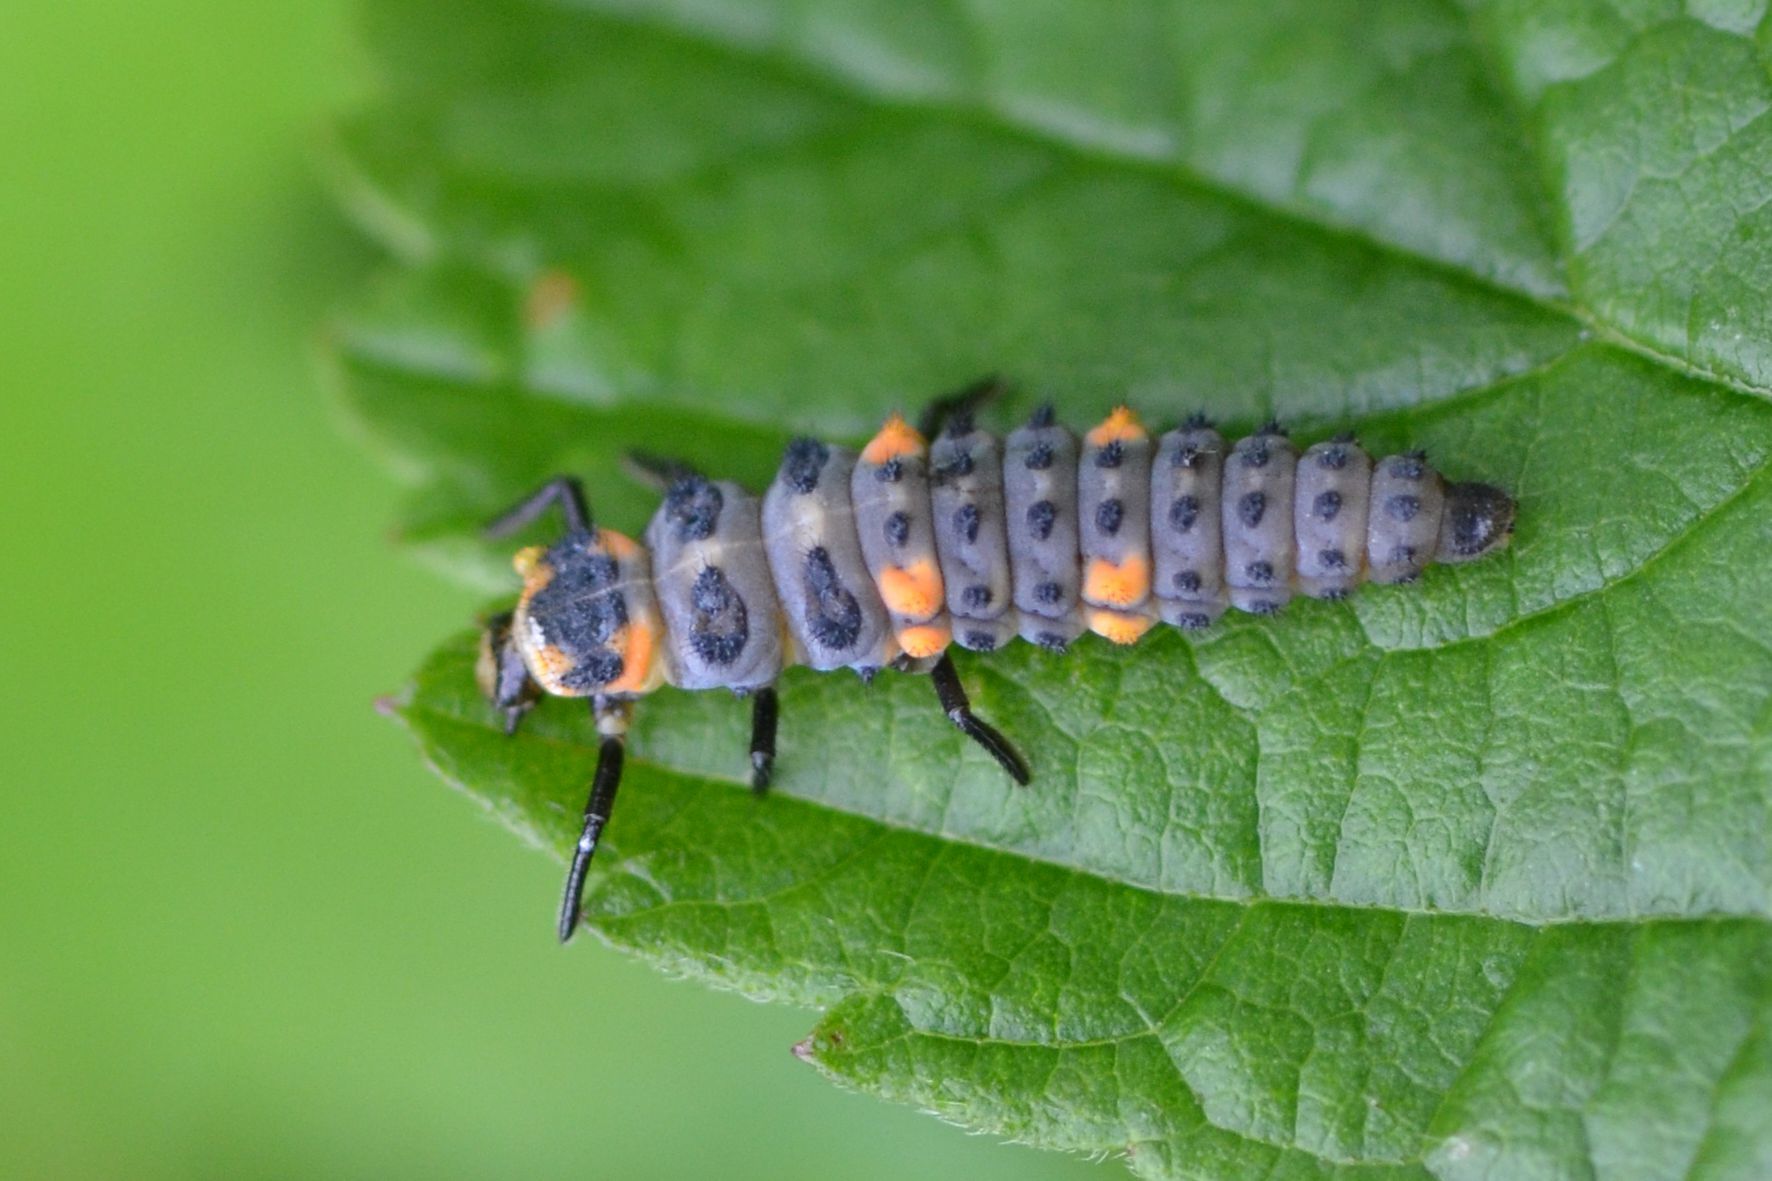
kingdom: Animalia
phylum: Arthropoda
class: Insecta
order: Coleoptera
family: Coccinellidae
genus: Coccinella
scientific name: Coccinella septempunctata
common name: Sevenspotted lady beetle
